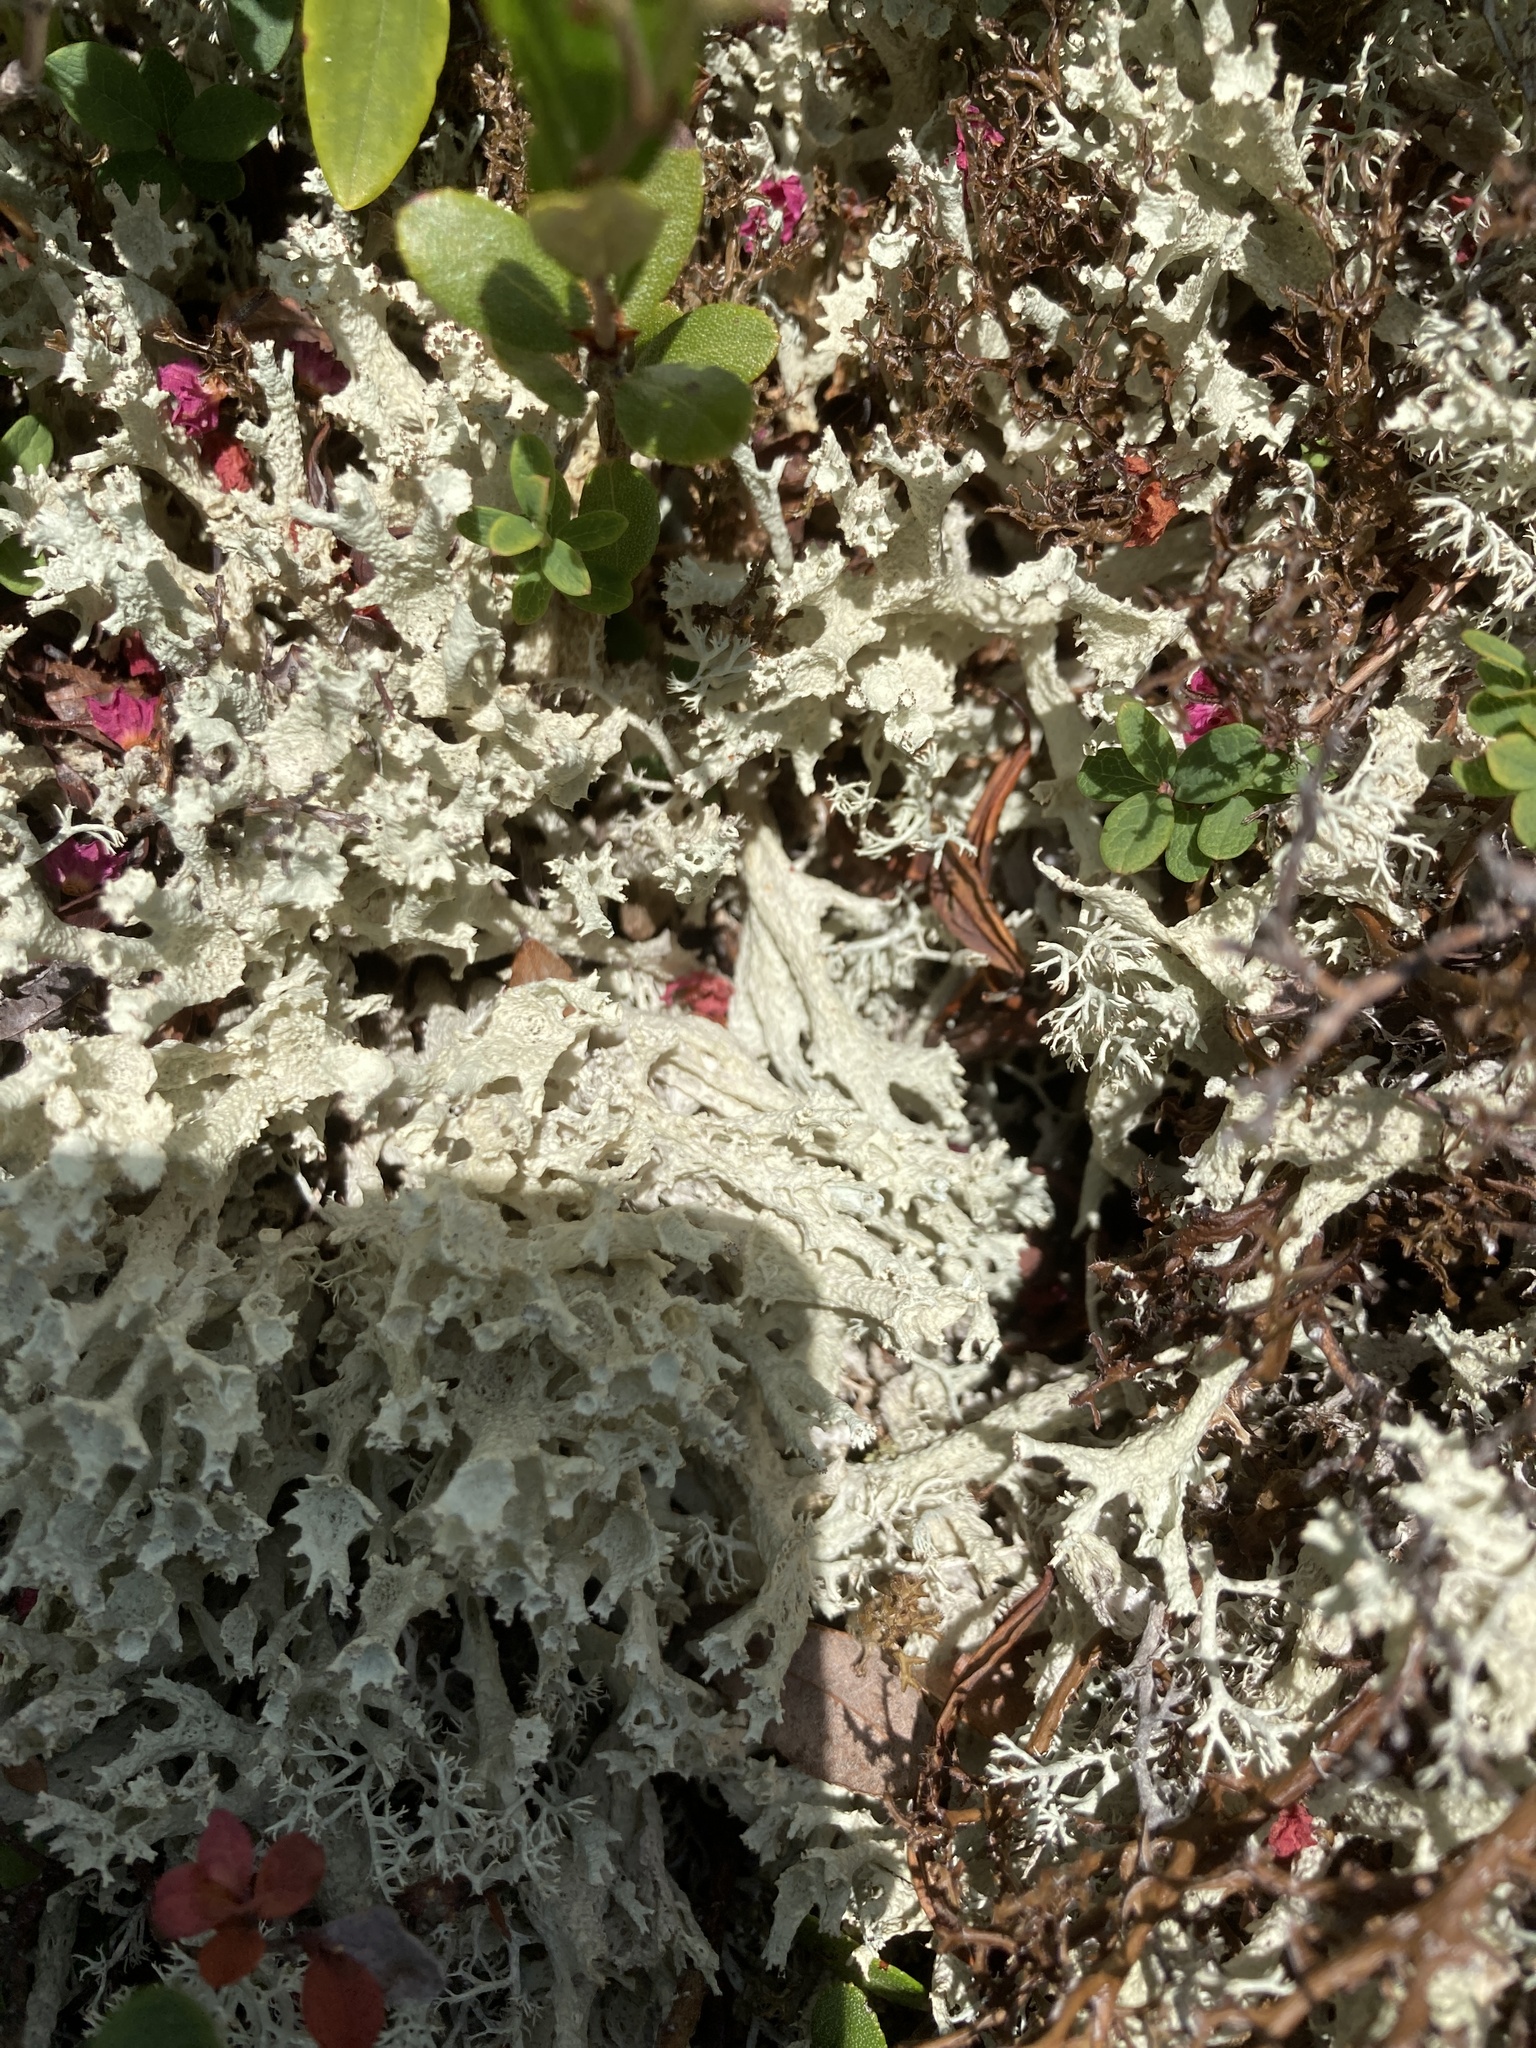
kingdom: Fungi
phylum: Ascomycota
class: Lecanoromycetes
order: Lecanorales
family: Cladoniaceae
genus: Cladonia
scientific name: Cladonia boryi
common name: Fishnet cladonia
